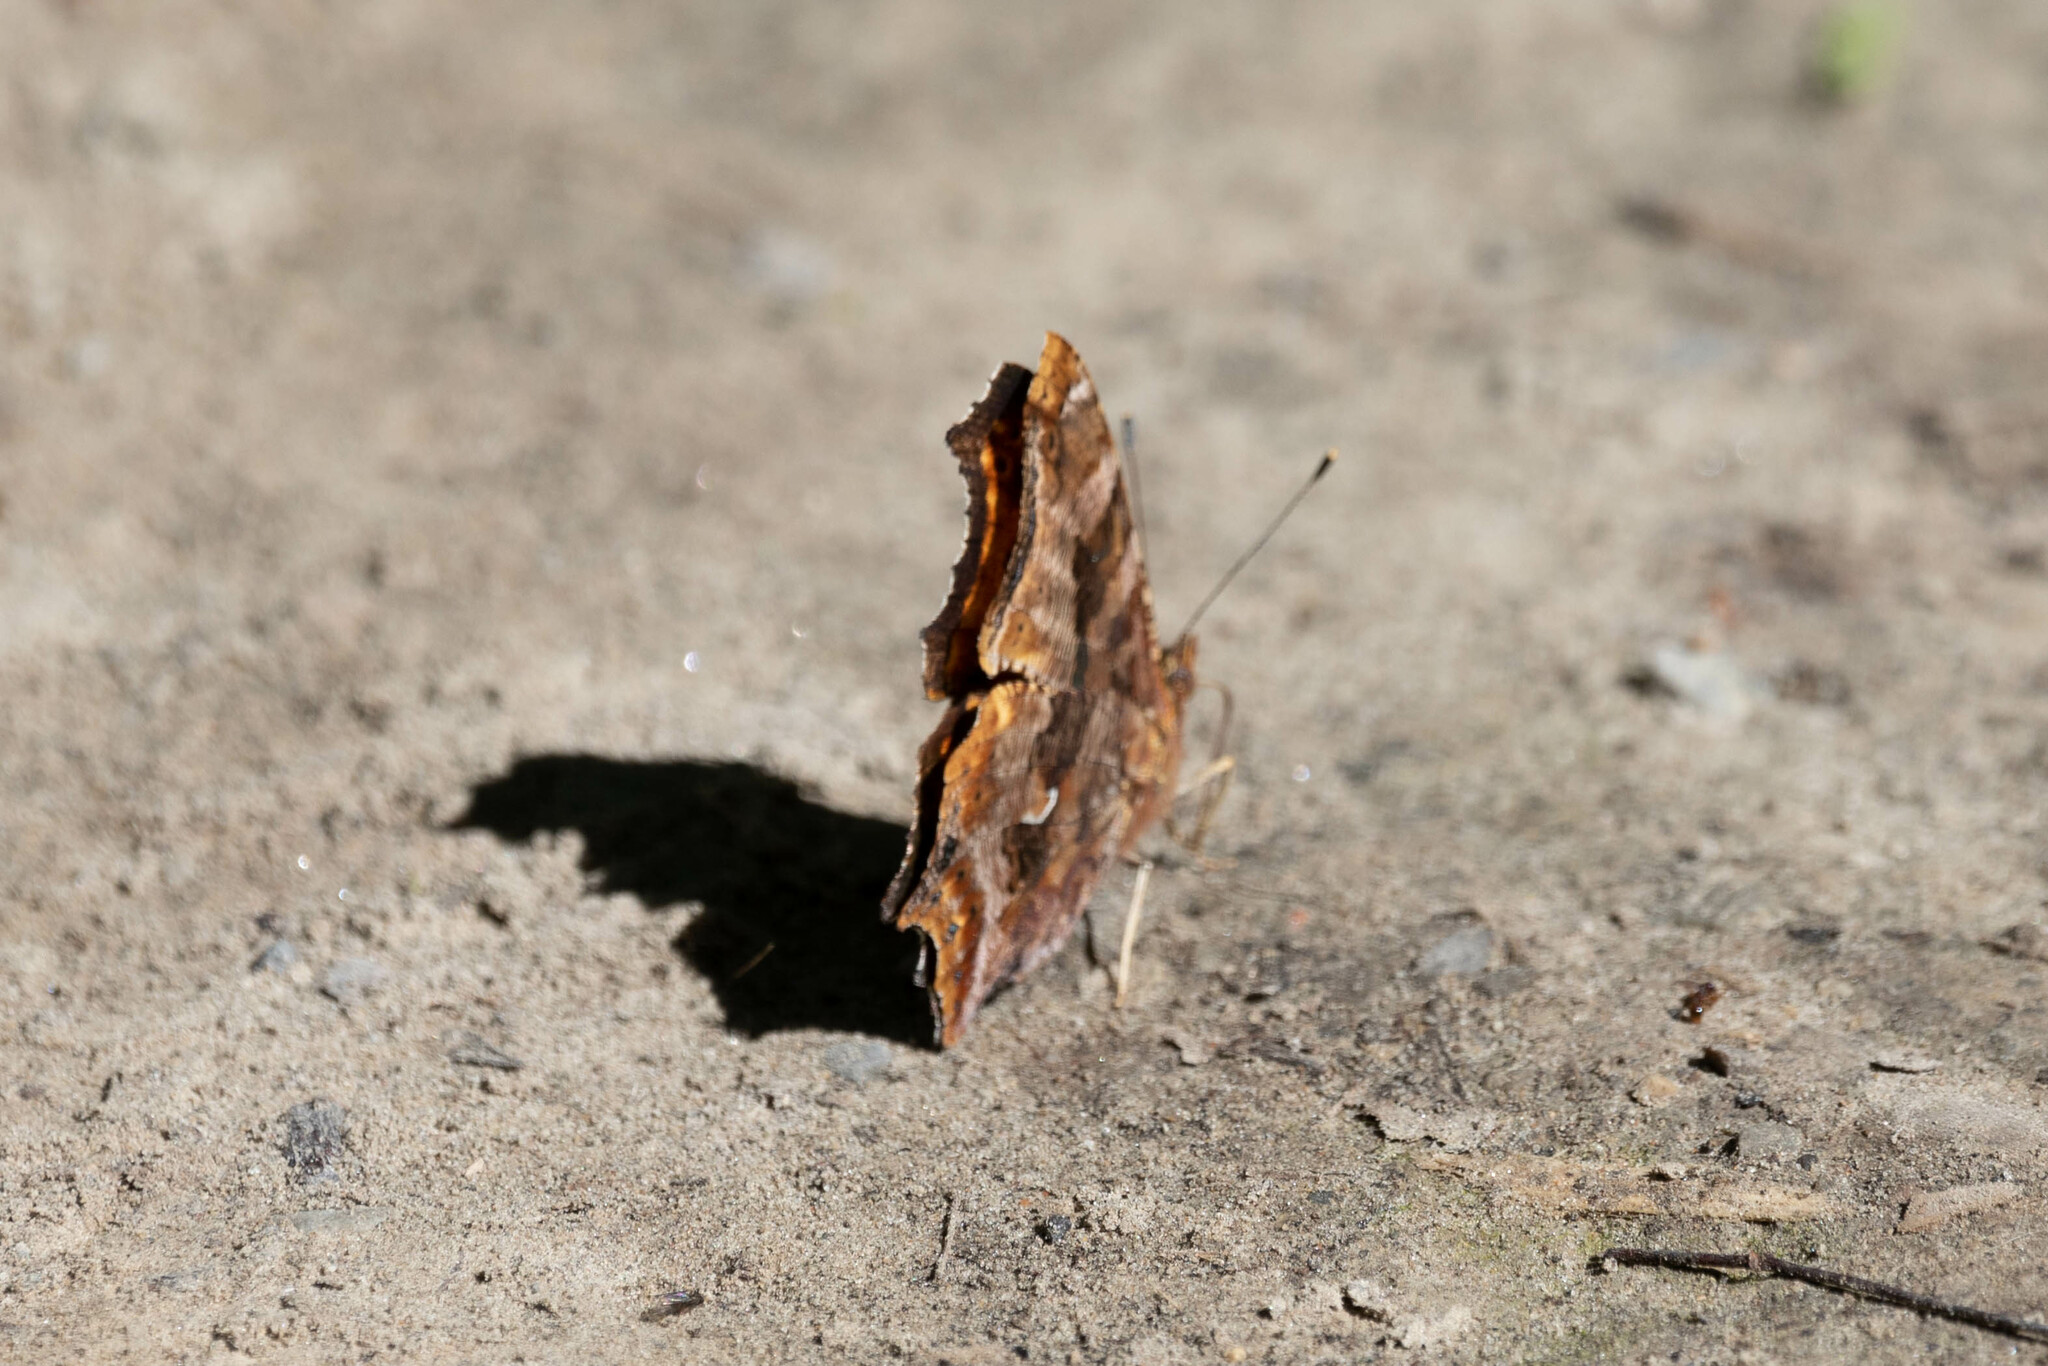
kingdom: Animalia
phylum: Arthropoda
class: Insecta
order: Lepidoptera
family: Nymphalidae
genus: Polygonia
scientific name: Polygonia comma
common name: Eastern comma
